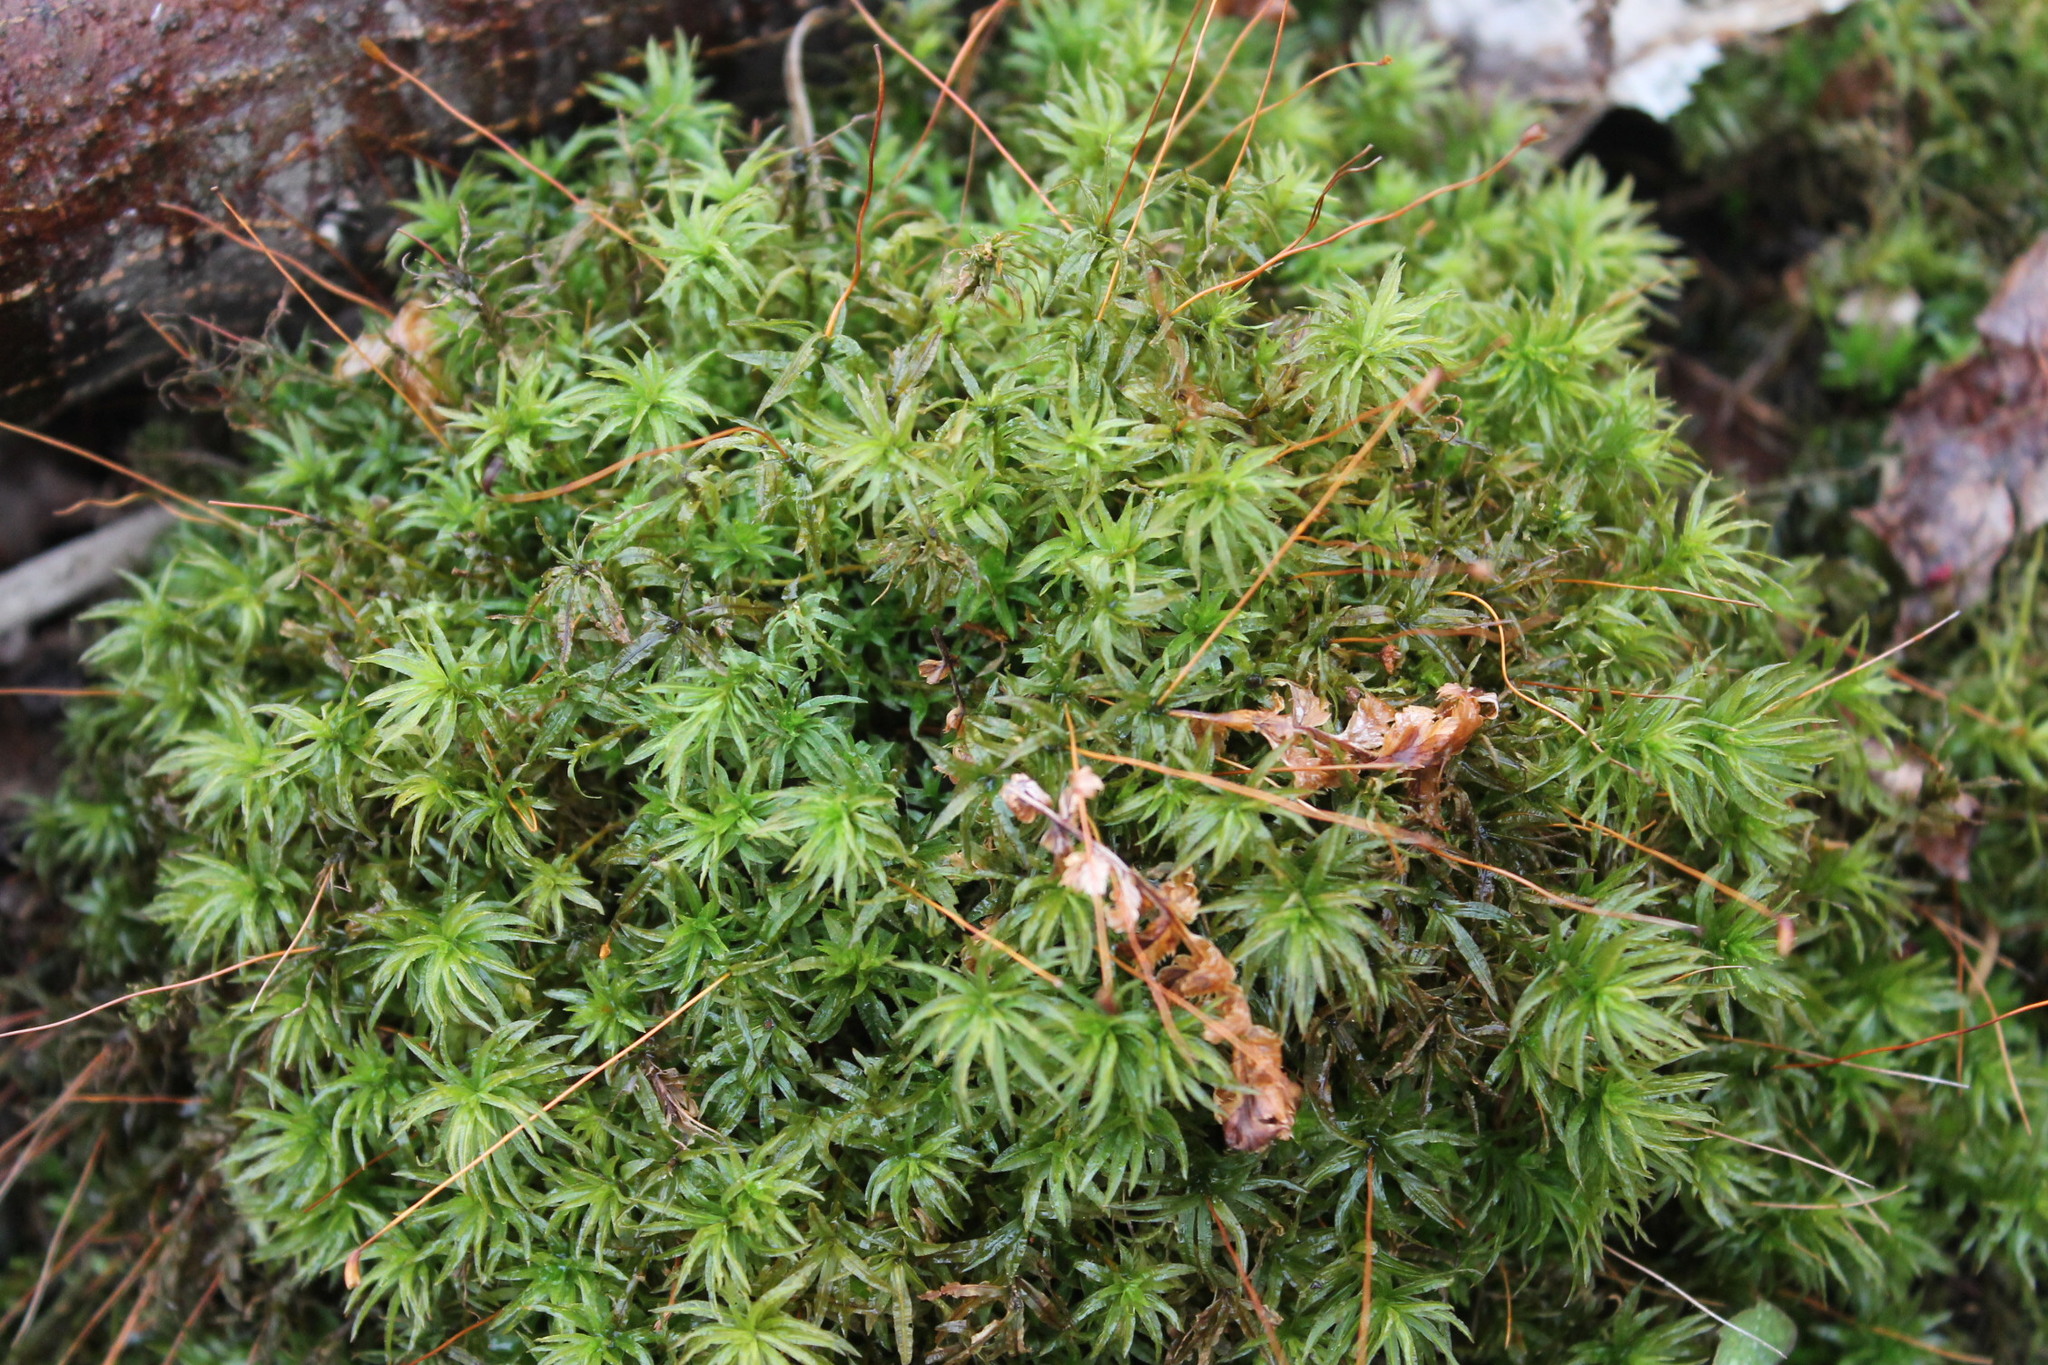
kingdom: Plantae
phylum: Bryophyta
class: Polytrichopsida
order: Polytrichales
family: Polytrichaceae
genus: Atrichum
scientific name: Atrichum undulatum
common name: Common smoothcap
